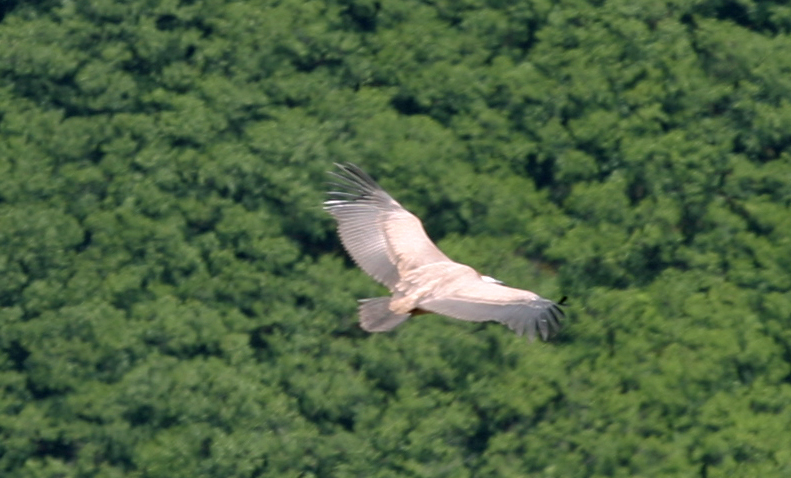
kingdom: Animalia
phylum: Chordata
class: Aves
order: Accipitriformes
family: Accipitridae
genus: Gyps
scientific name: Gyps fulvus
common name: Griffon vulture
